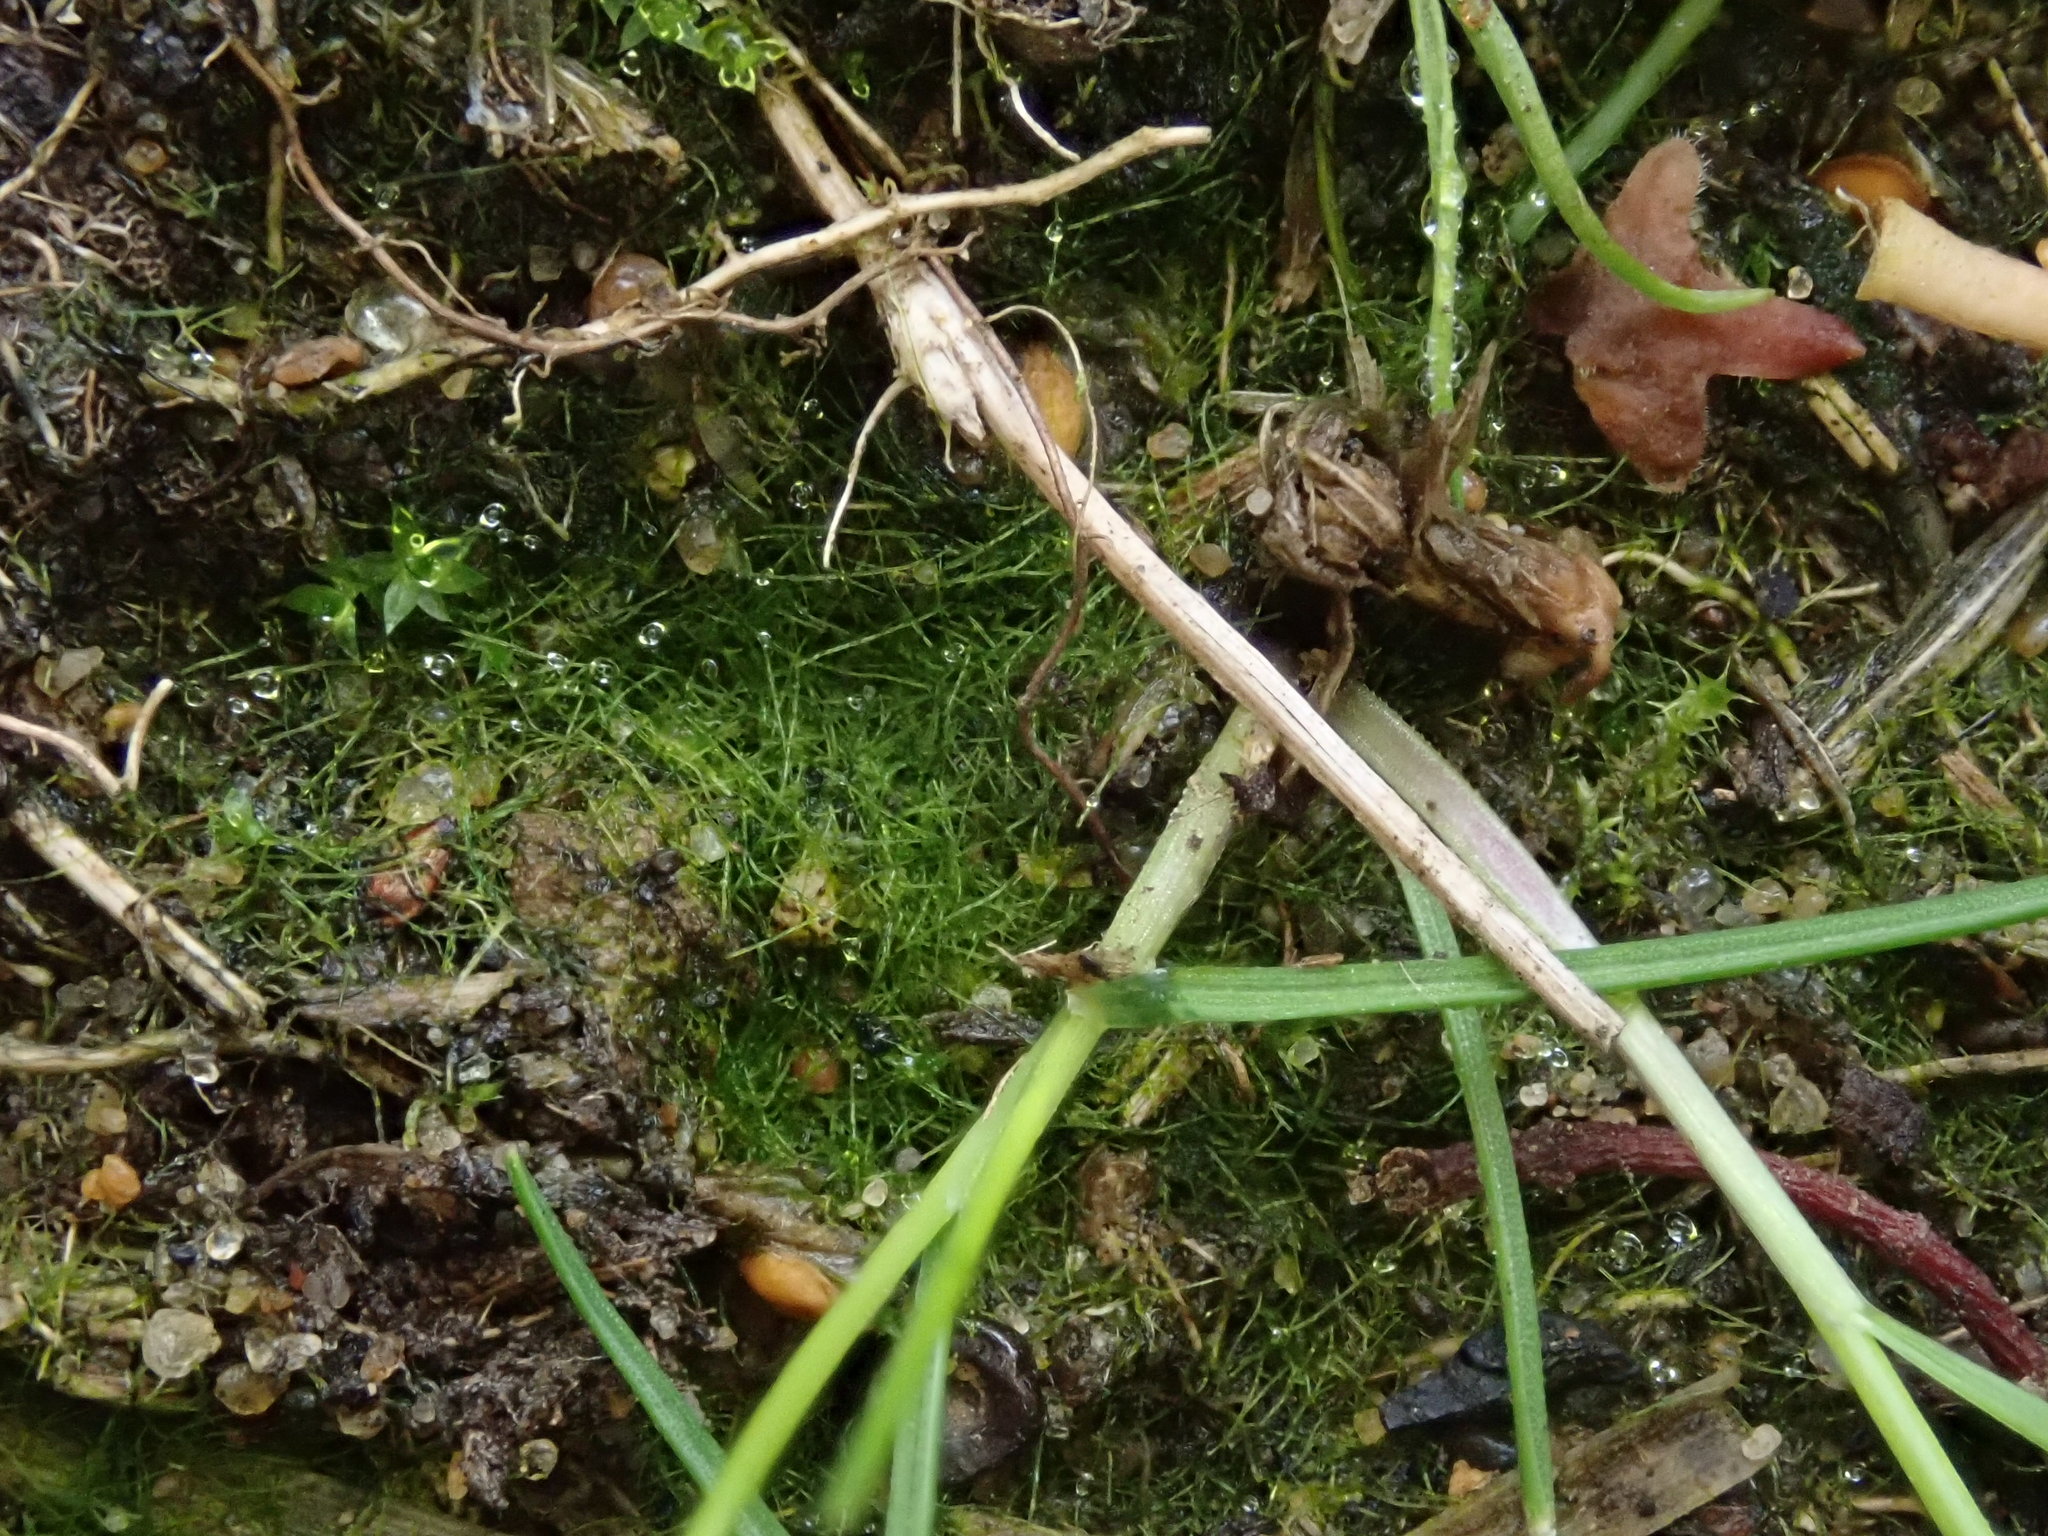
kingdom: Chromista
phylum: Ochrophyta
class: Xanthophyceae
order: Vaucheriales
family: Vaucheriaceae
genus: Vaucheria
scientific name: Vaucheria
